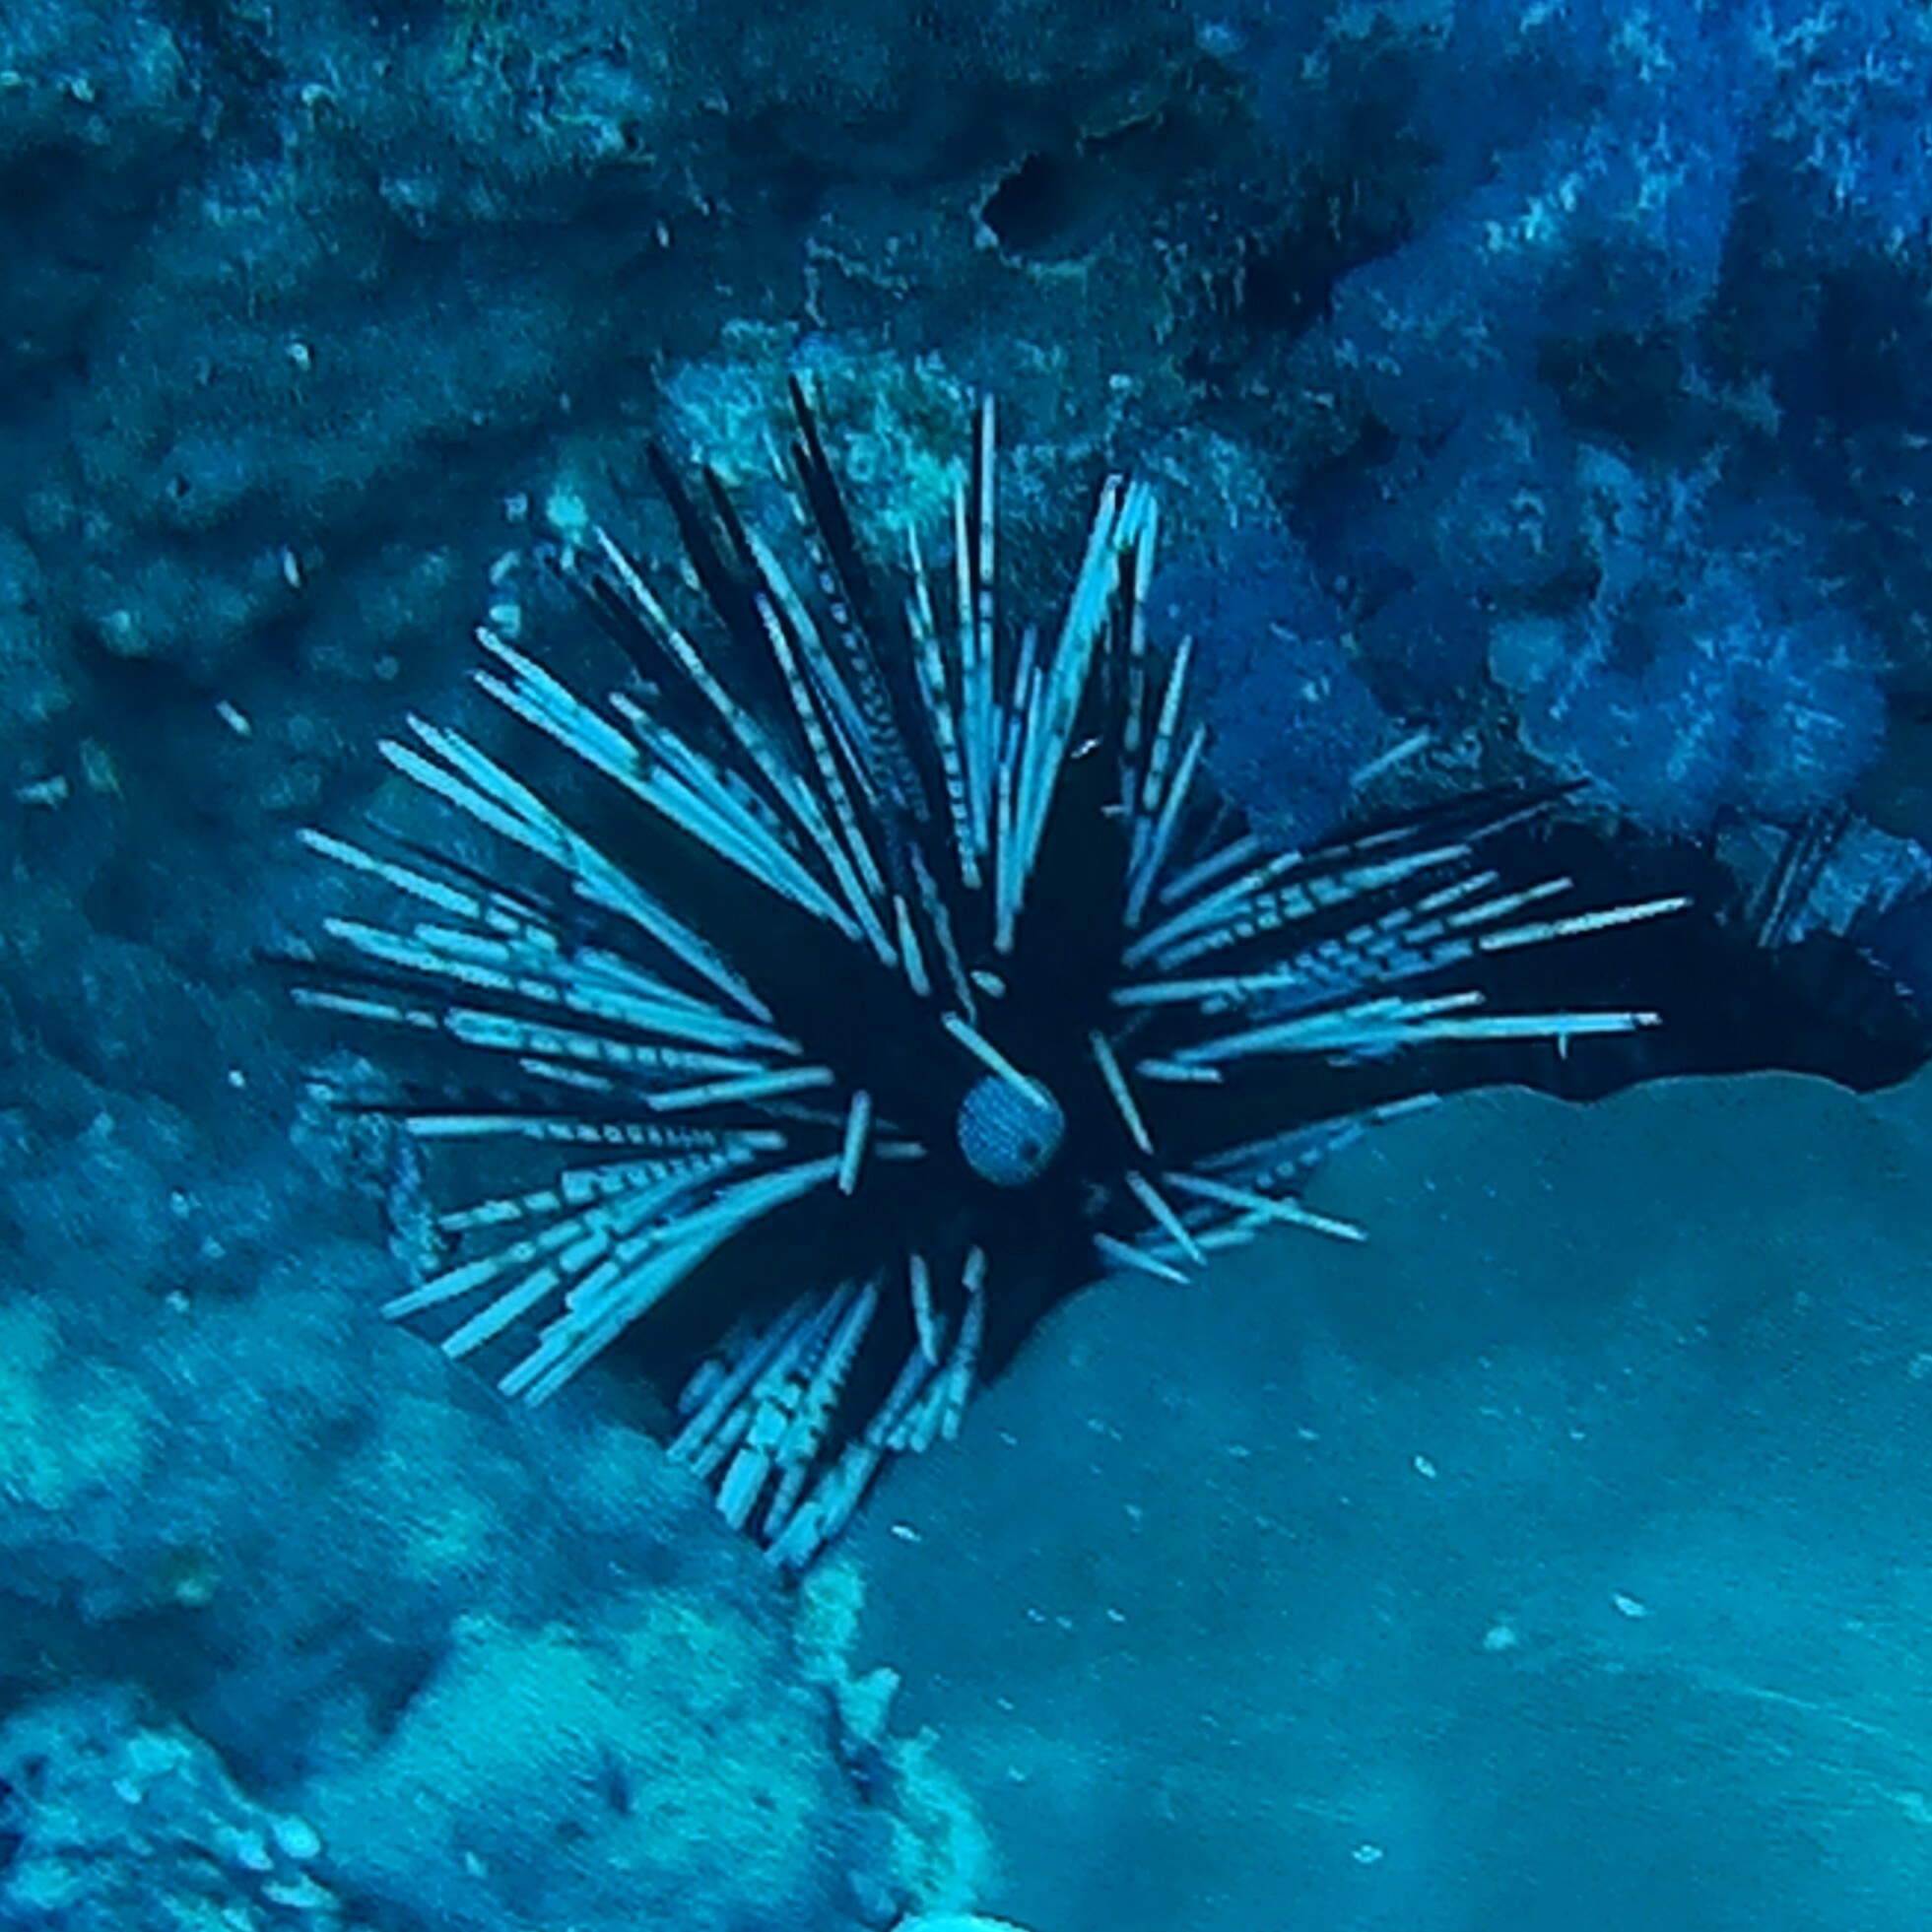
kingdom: Animalia
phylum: Echinodermata
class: Echinoidea
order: Diadematoida
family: Diadematidae
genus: Echinothrix
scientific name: Echinothrix calamaris
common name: Banded sea urchin
